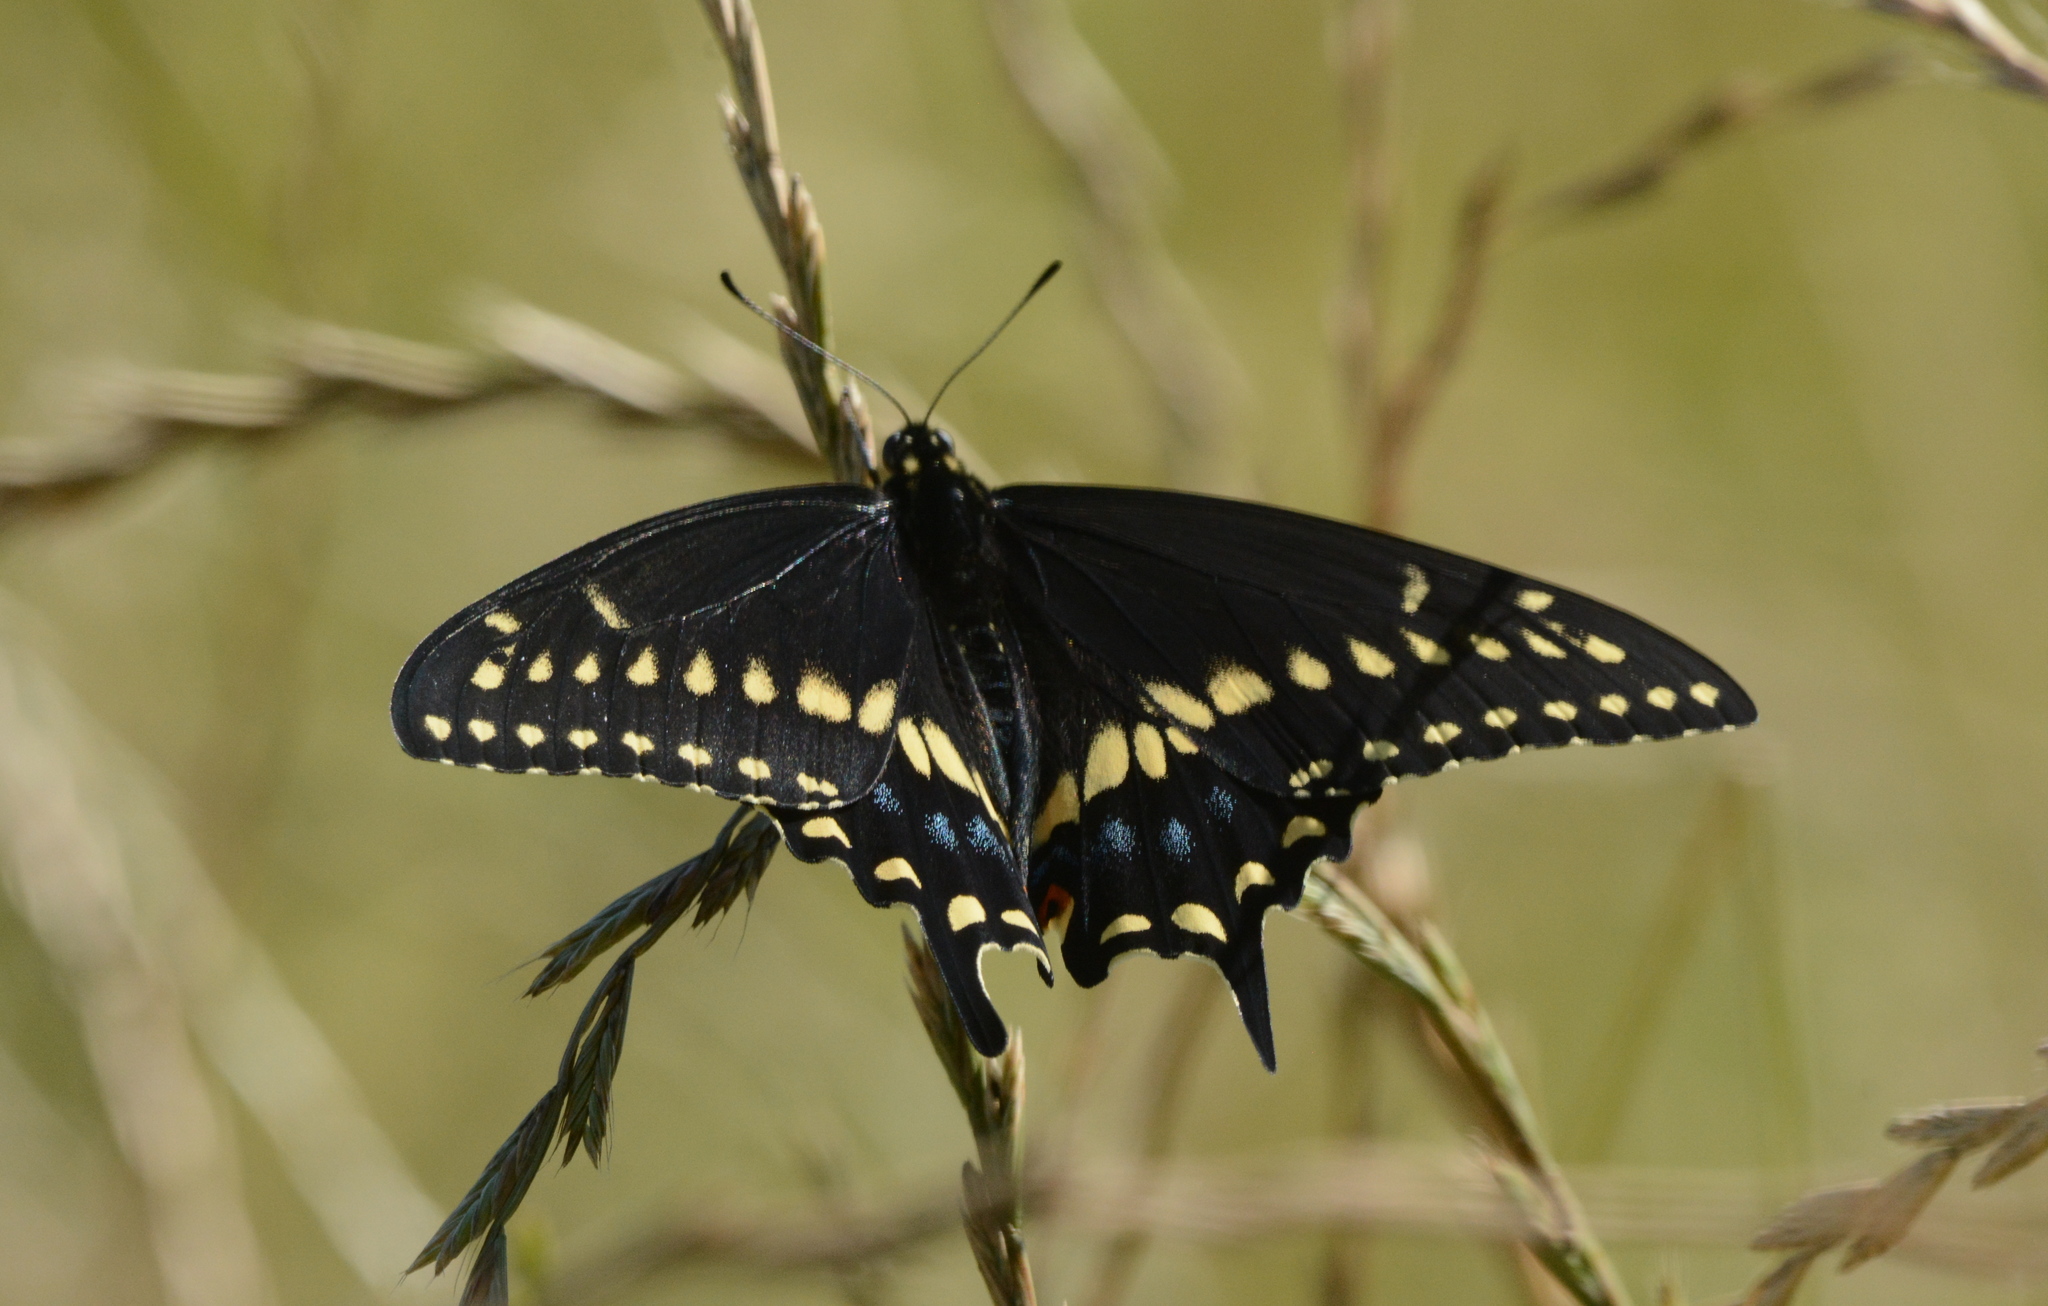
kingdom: Animalia
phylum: Arthropoda
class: Insecta
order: Lepidoptera
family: Papilionidae
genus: Papilio
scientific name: Papilio polyxenes
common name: Black swallowtail
